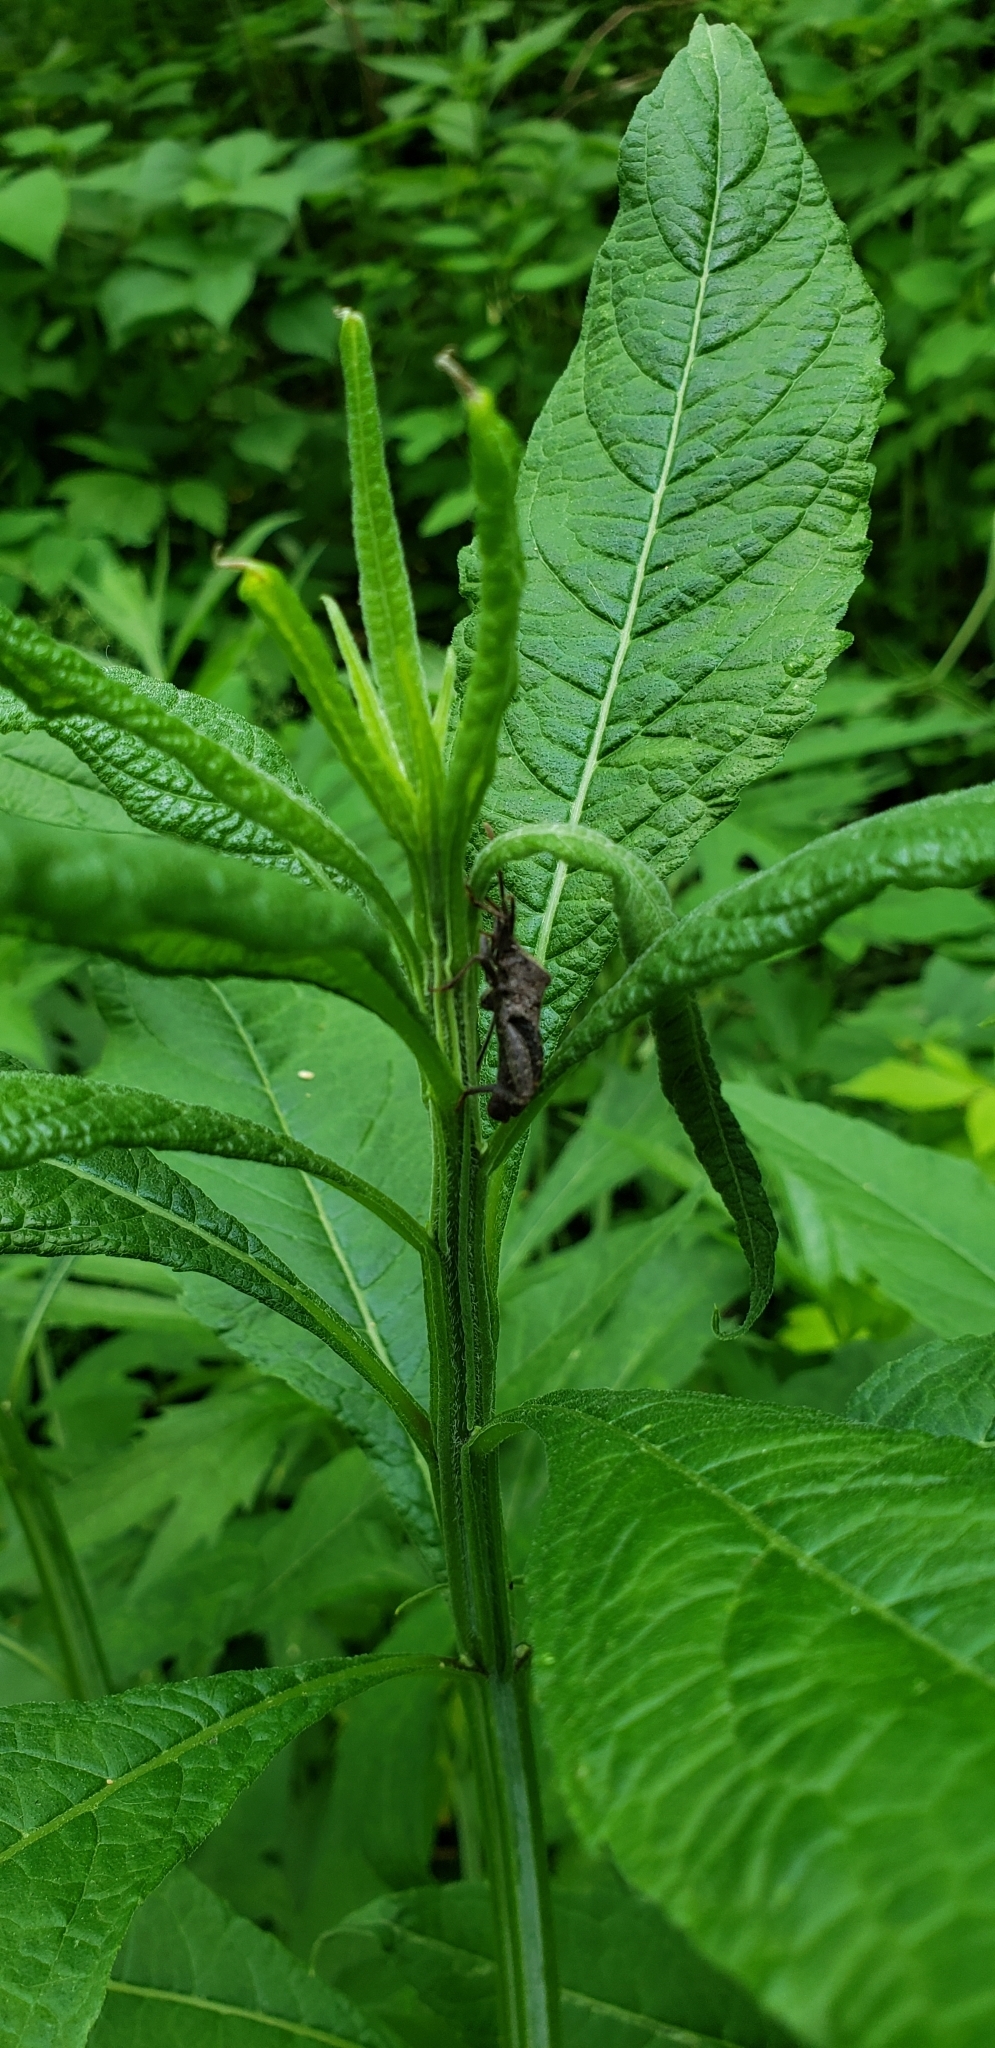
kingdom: Plantae
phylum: Tracheophyta
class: Magnoliopsida
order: Asterales
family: Asteraceae
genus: Verbesina
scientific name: Verbesina alternifolia
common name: Wingstem
